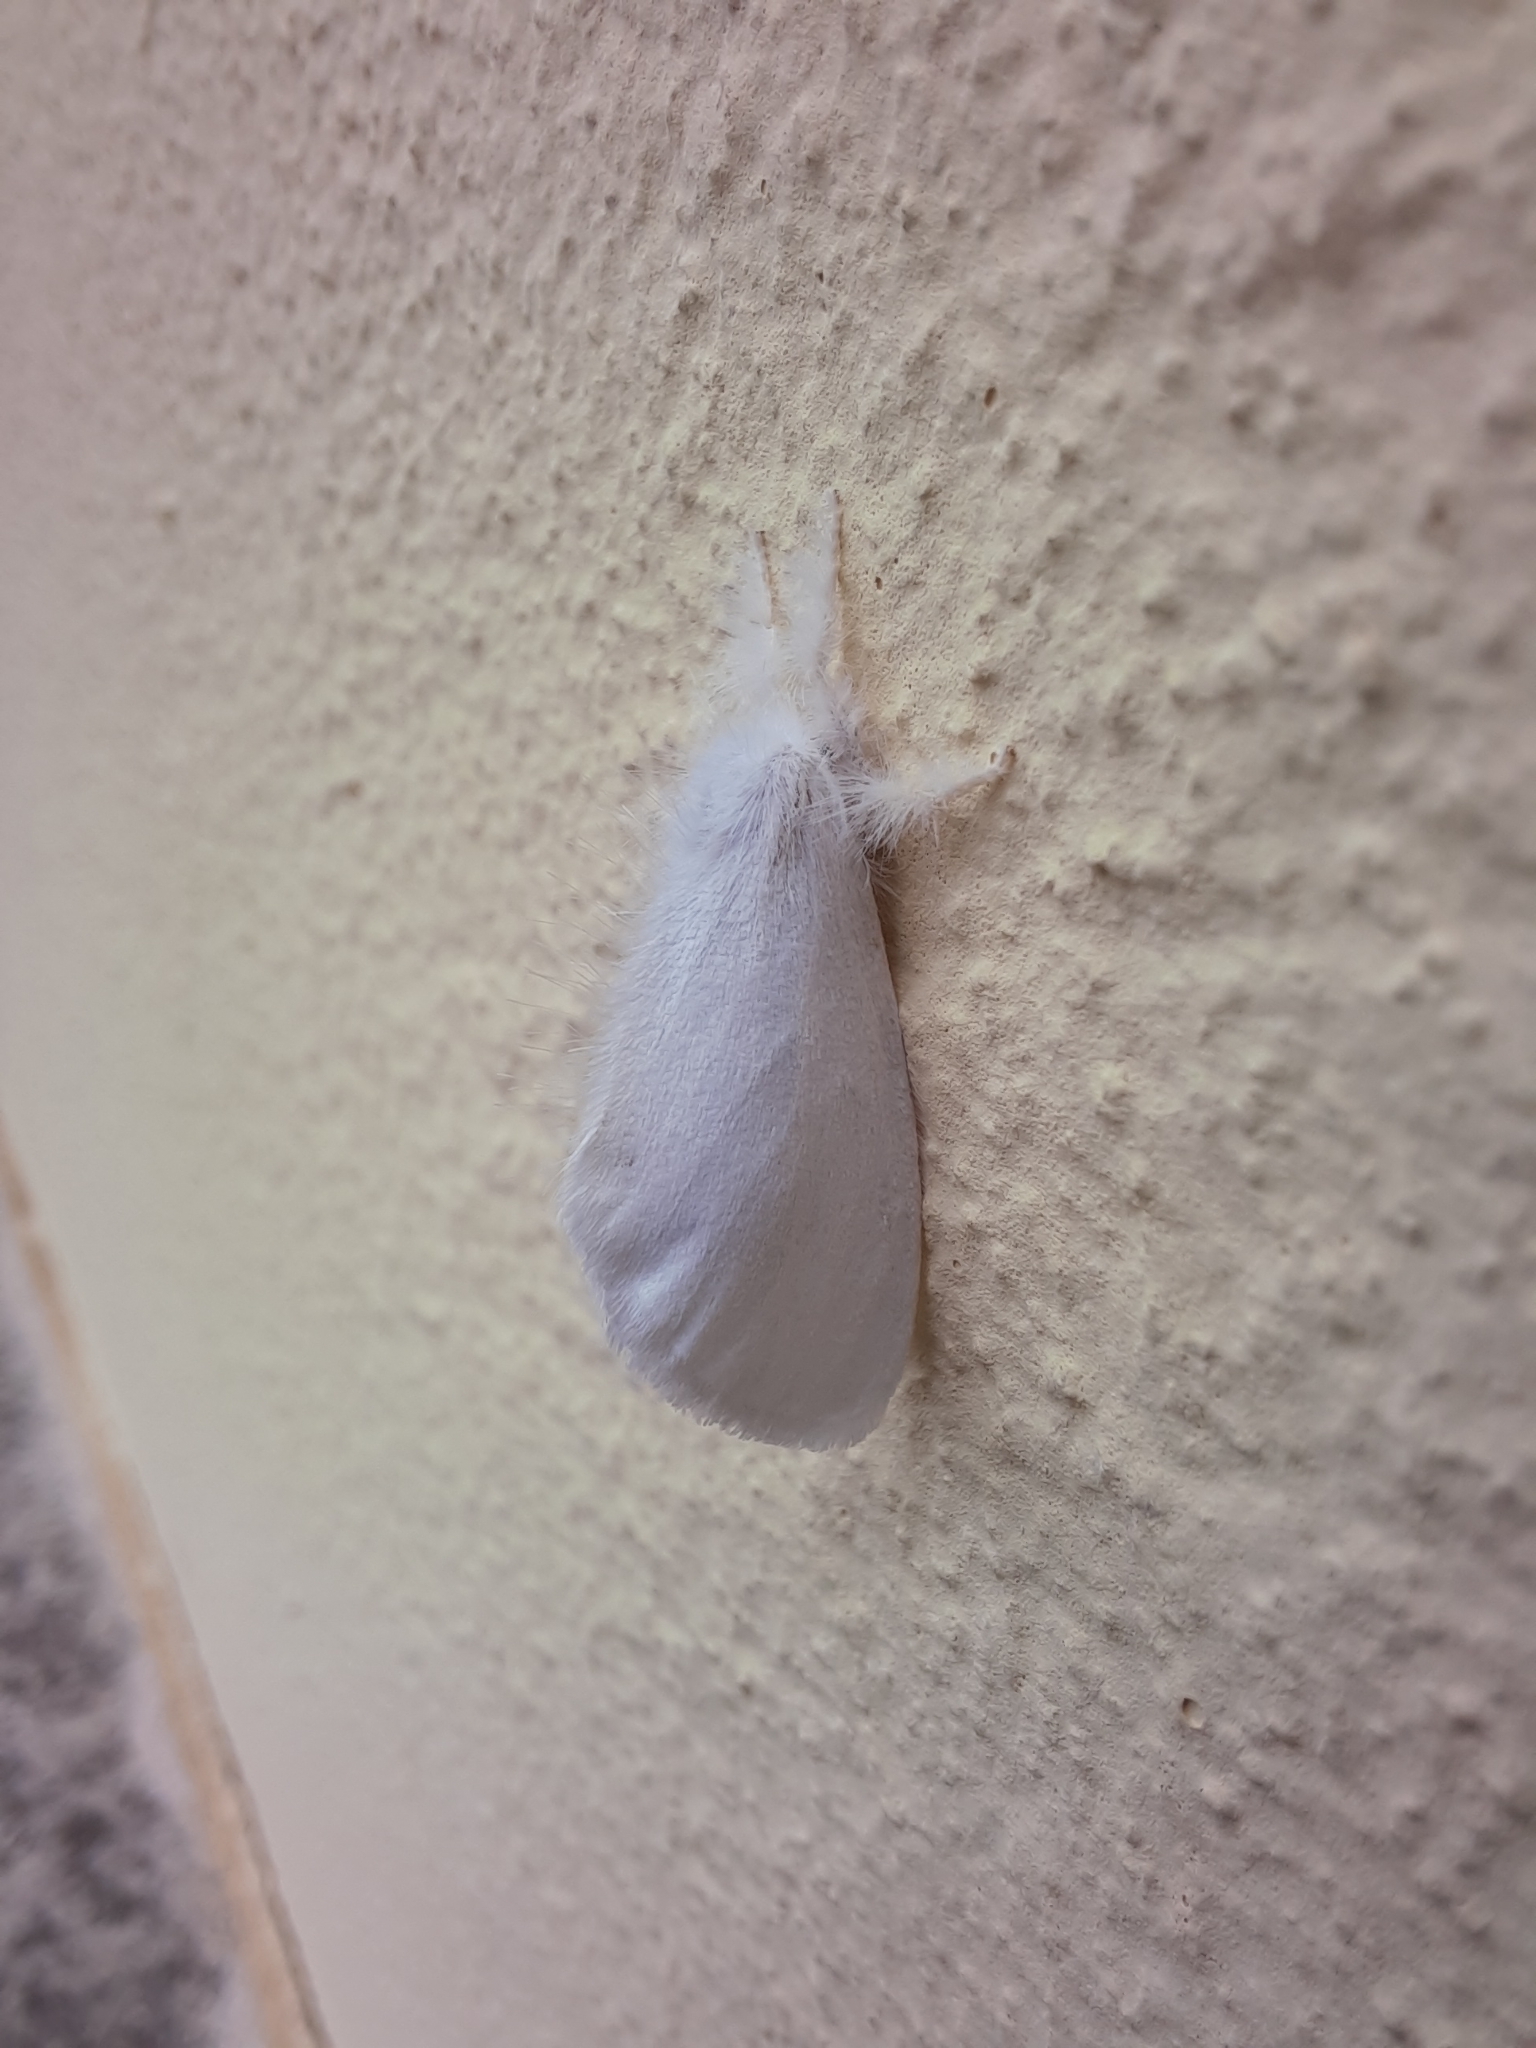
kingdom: Animalia
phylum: Arthropoda
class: Insecta
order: Lepidoptera
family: Erebidae
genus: Sphrageidus
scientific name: Sphrageidus similis
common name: Yellow-tail
